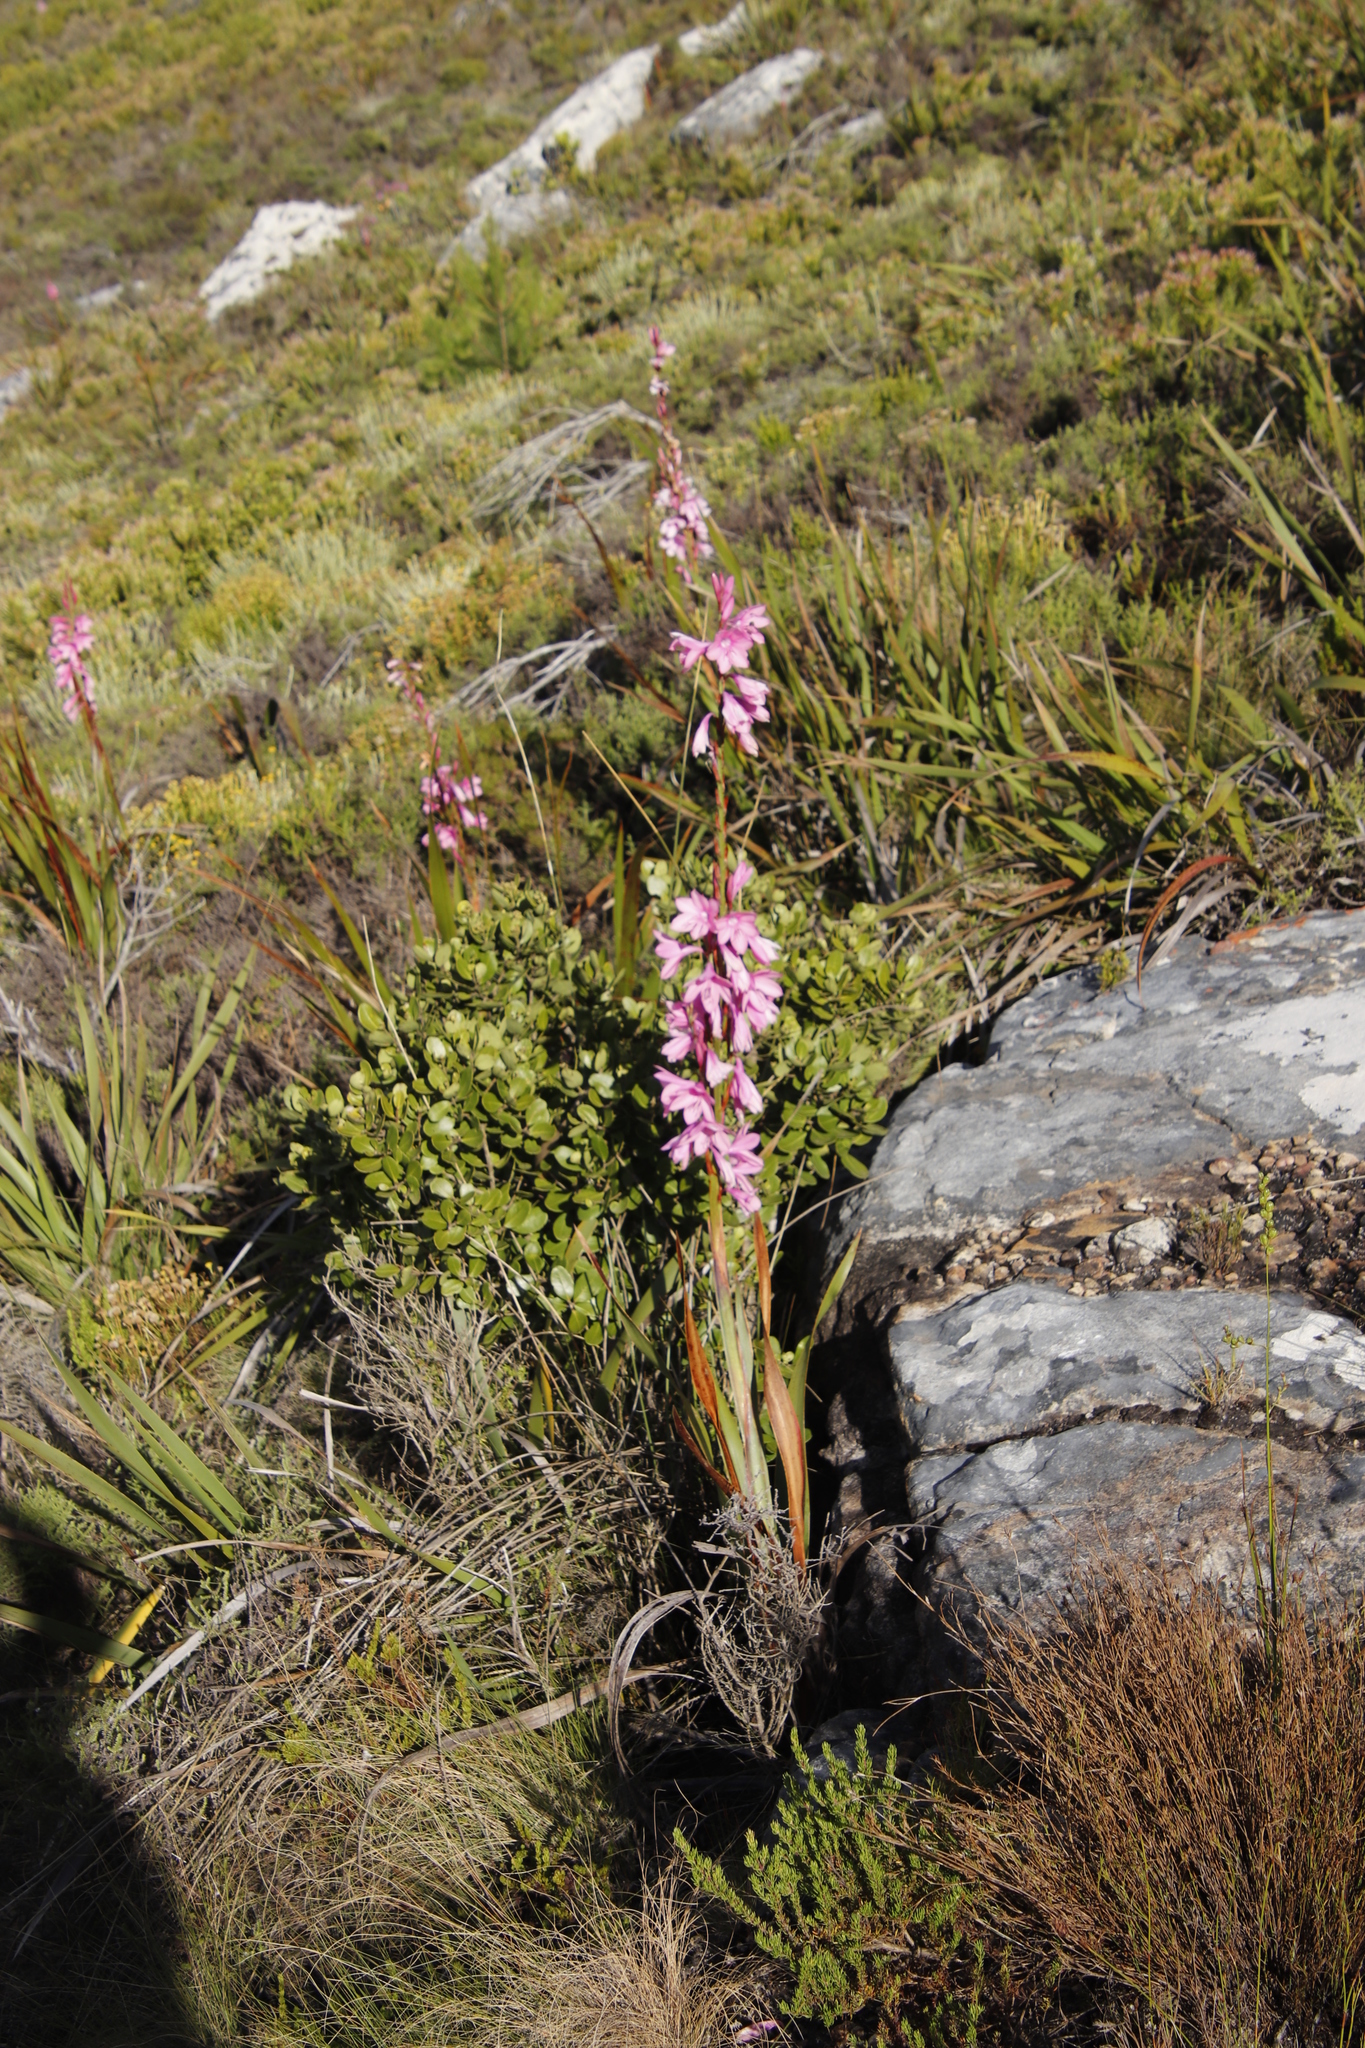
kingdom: Plantae
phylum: Tracheophyta
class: Liliopsida
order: Asparagales
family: Iridaceae
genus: Watsonia
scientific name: Watsonia borbonica
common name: Bugle-lily
